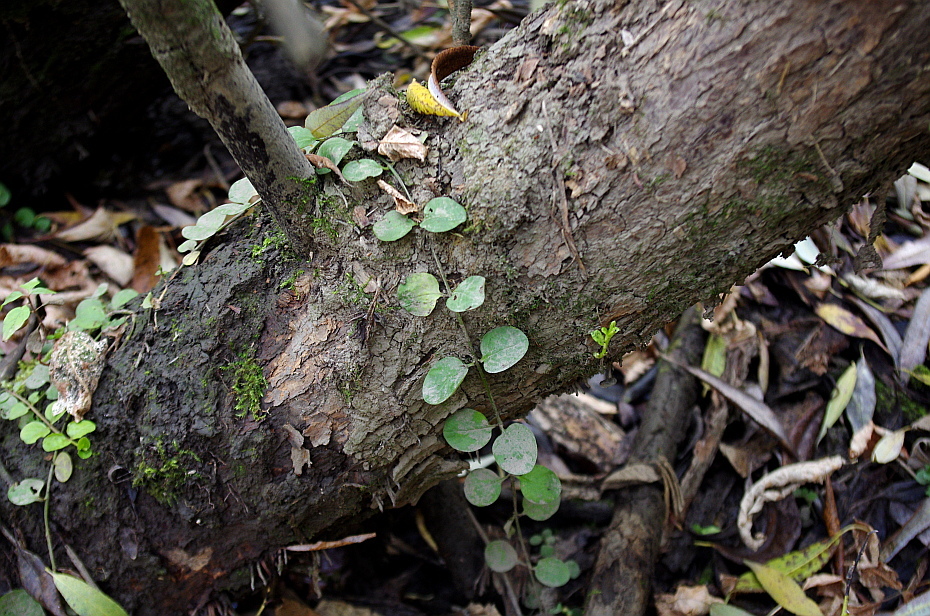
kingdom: Plantae
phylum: Tracheophyta
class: Magnoliopsida
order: Ericales
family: Primulaceae
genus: Lysimachia
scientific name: Lysimachia nummularia
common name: Moneywort
